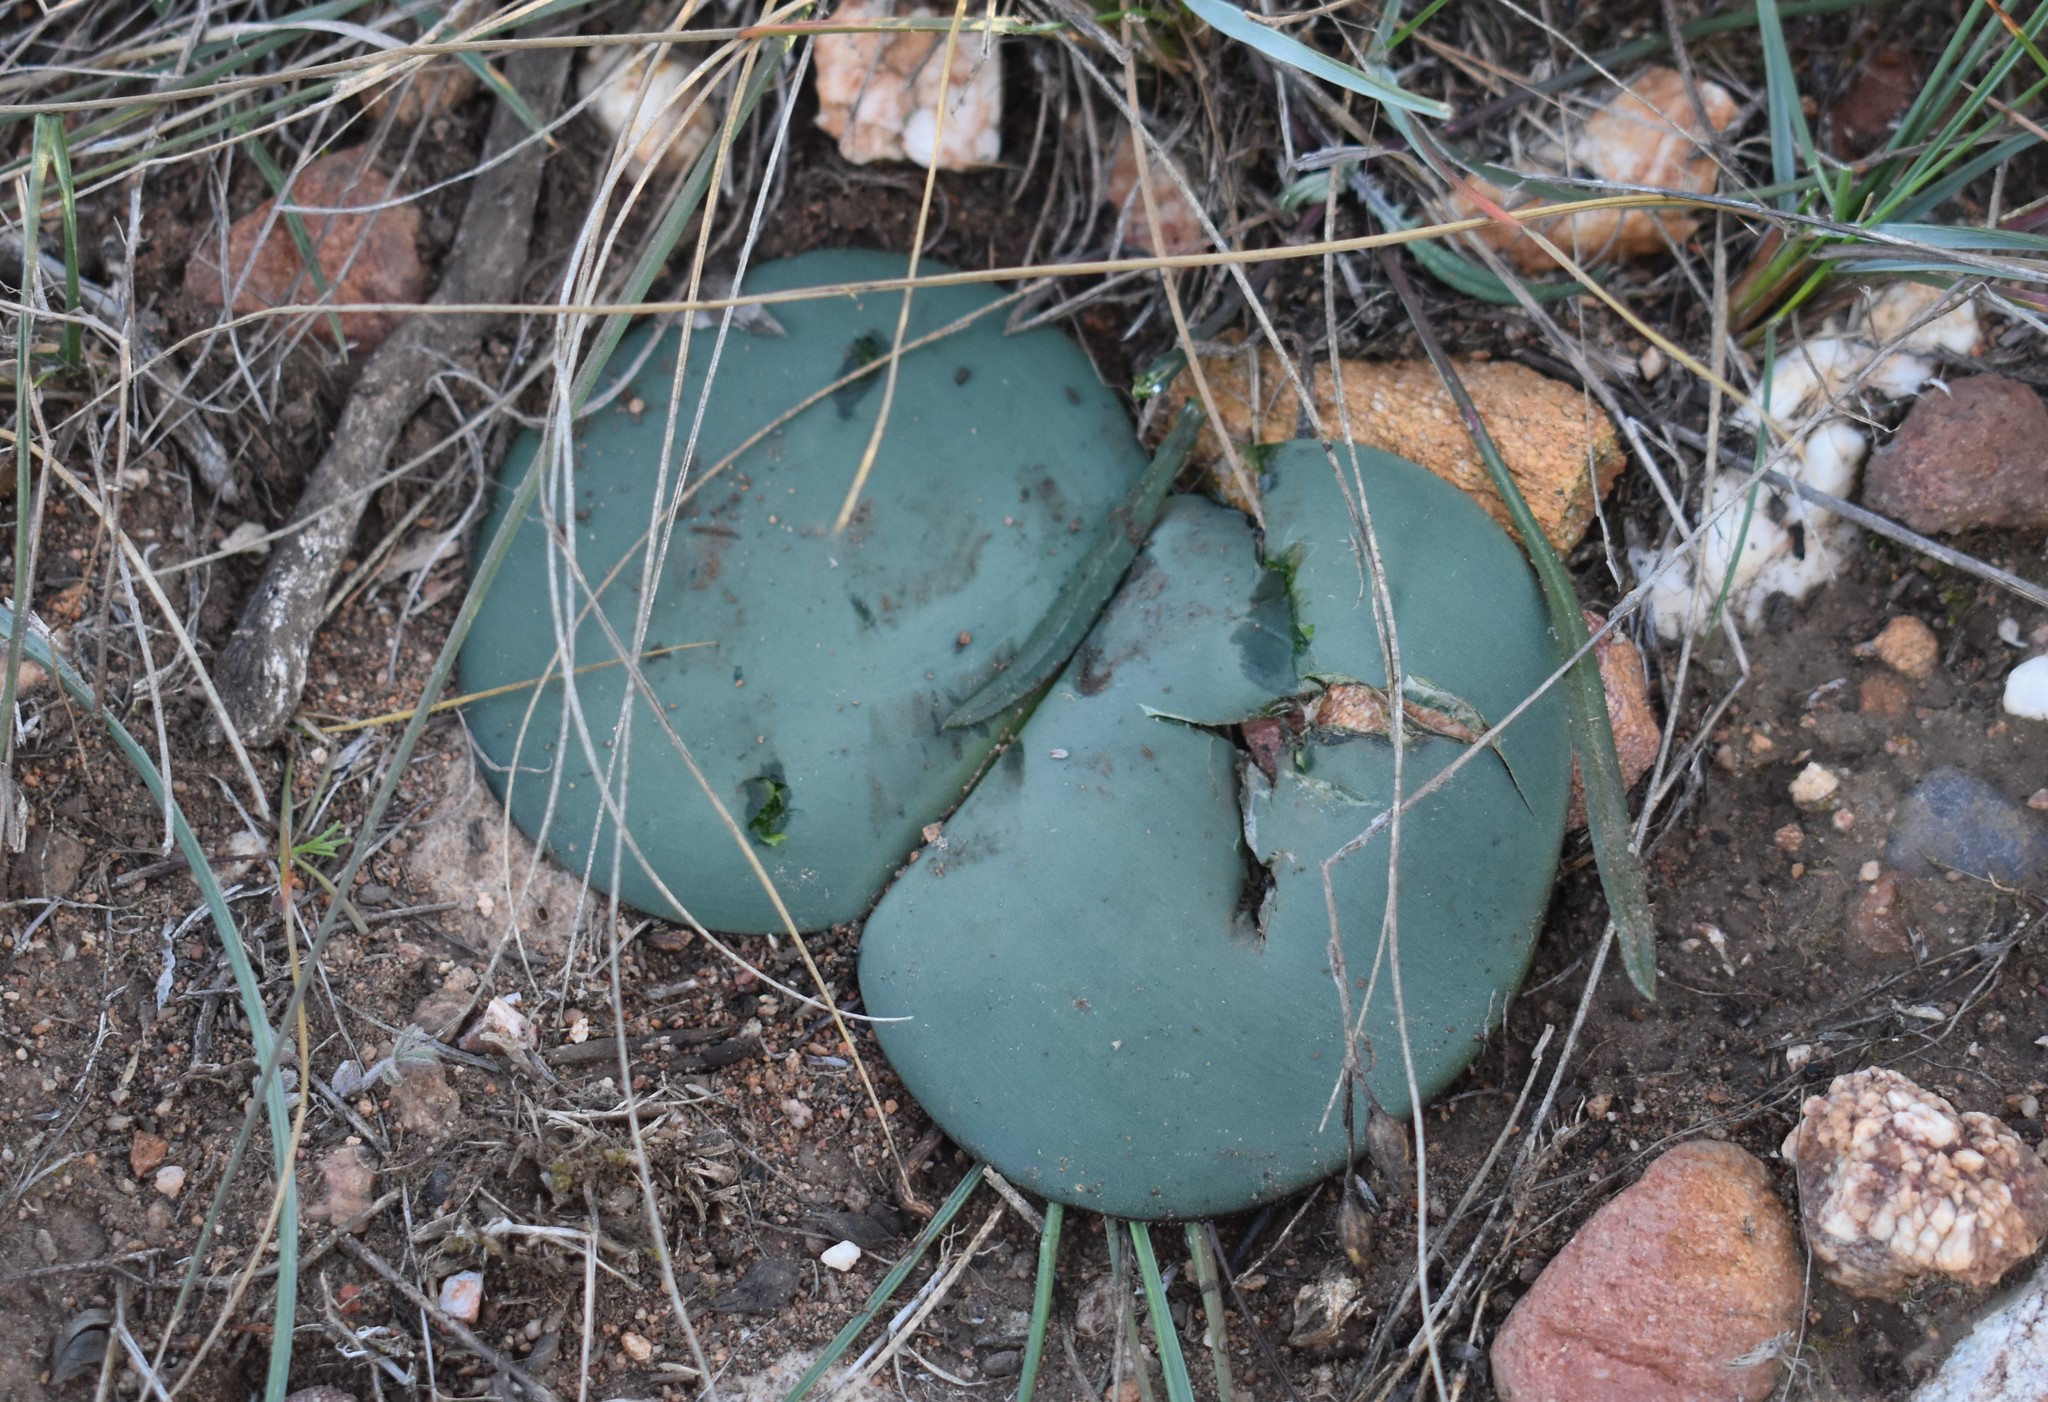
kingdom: Plantae
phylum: Tracheophyta
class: Liliopsida
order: Asparagales
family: Amaryllidaceae
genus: Haemanthus
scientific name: Haemanthus sanguineus
